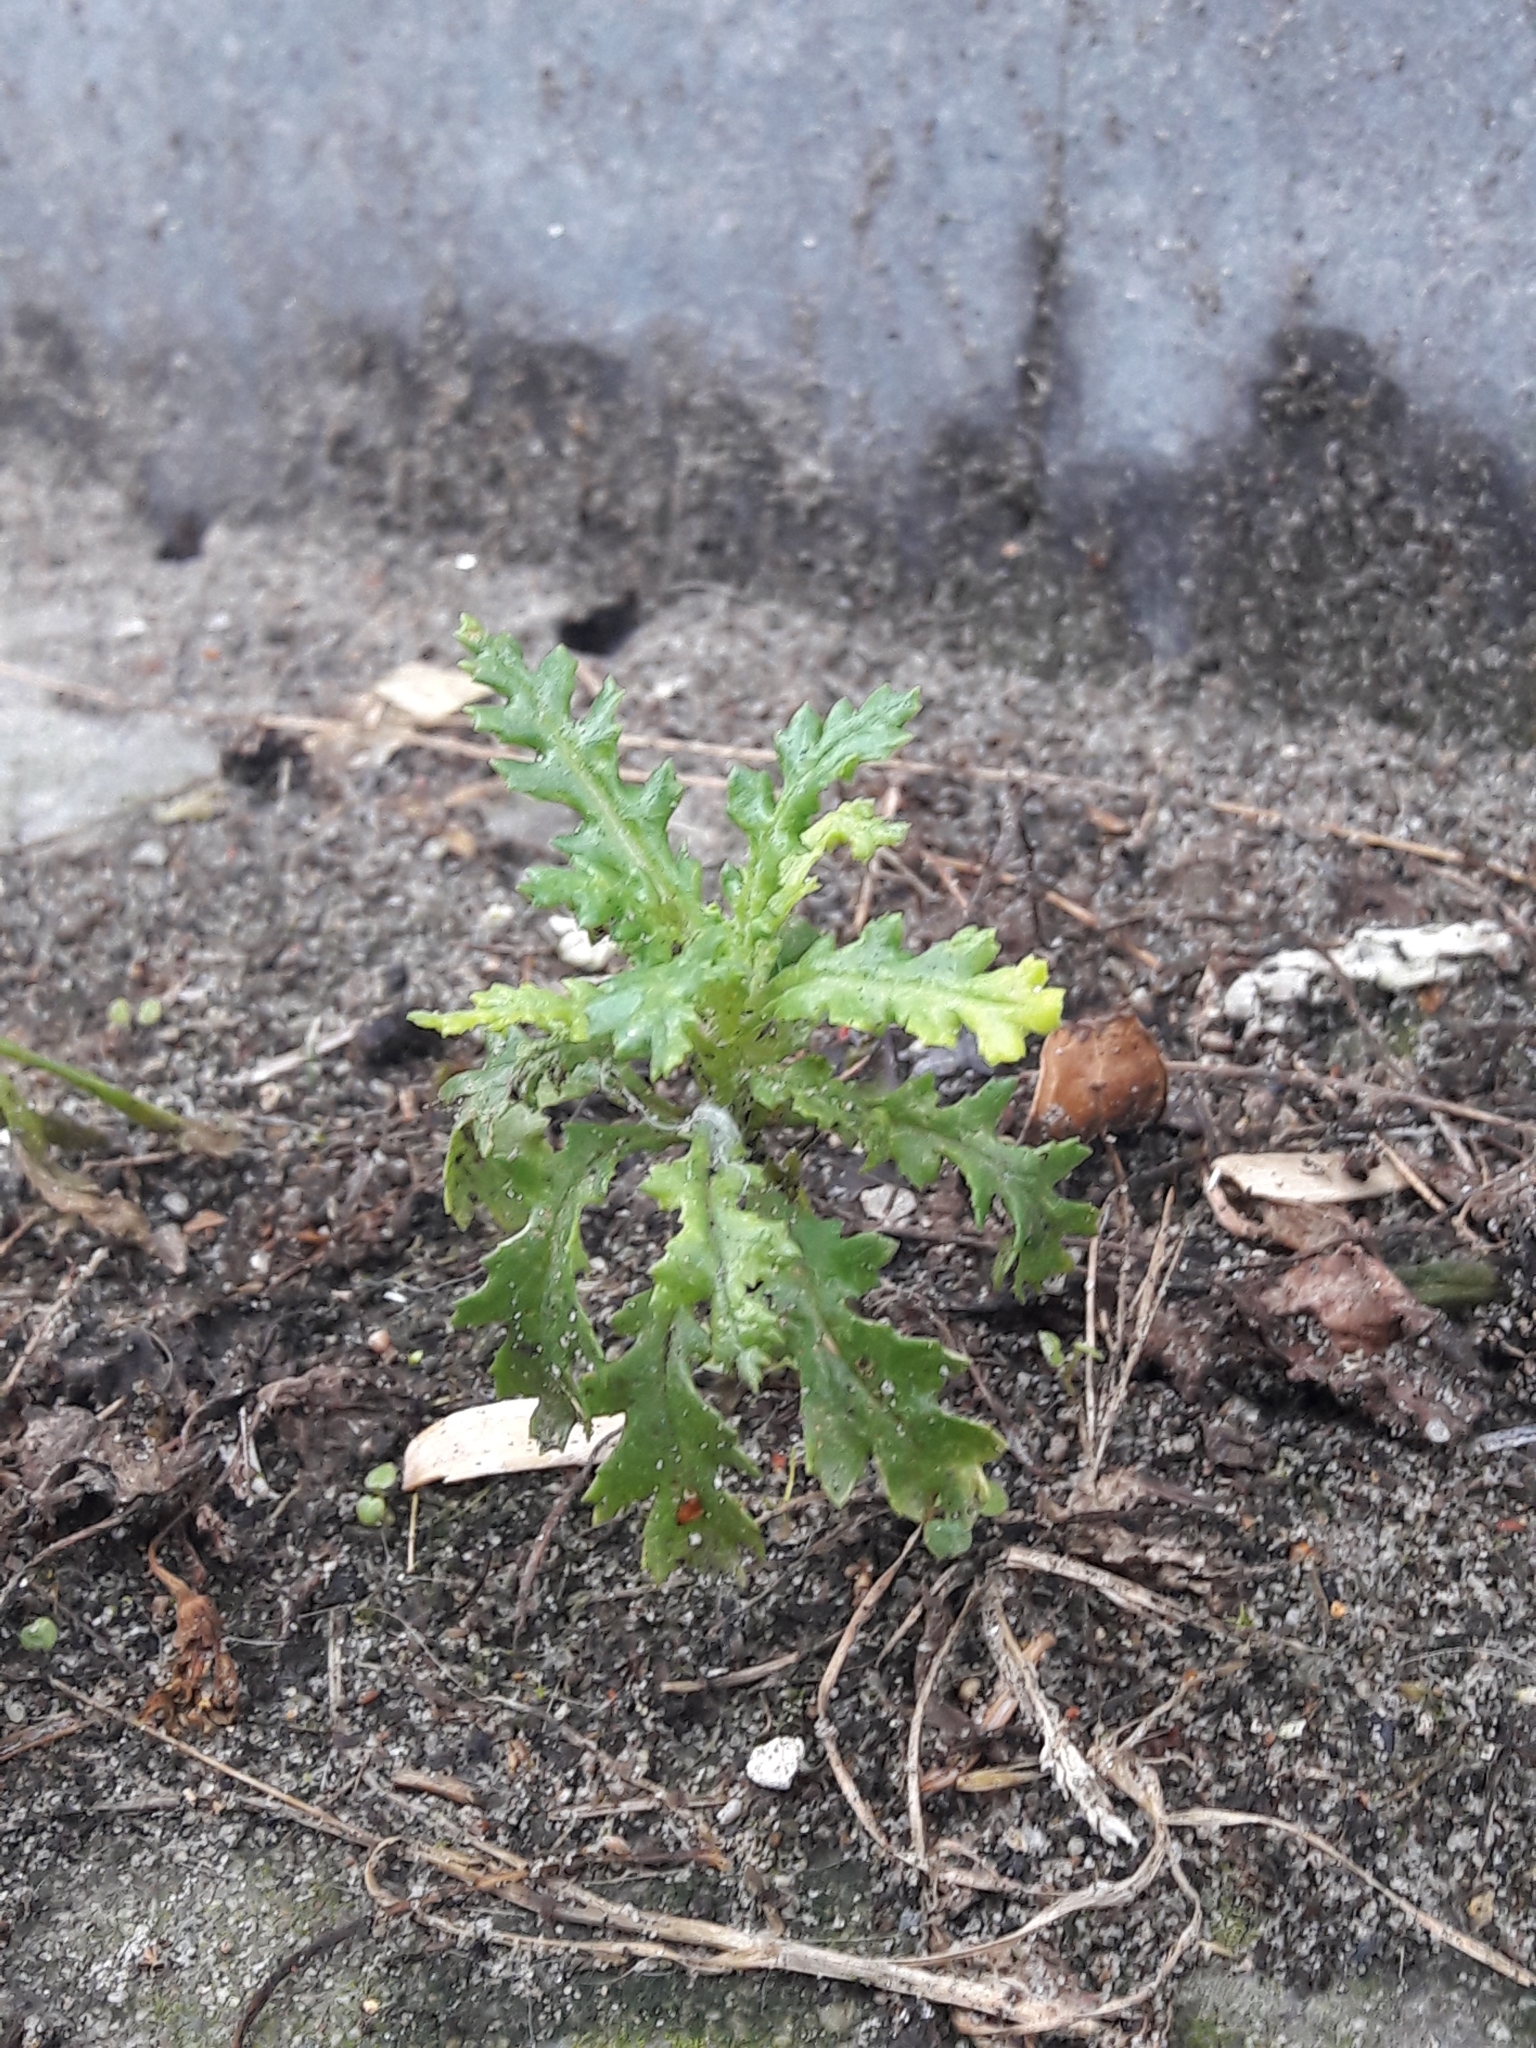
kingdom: Plantae
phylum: Tracheophyta
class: Magnoliopsida
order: Asterales
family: Asteraceae
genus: Senecio
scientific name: Senecio vulgaris
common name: Old-man-in-the-spring
